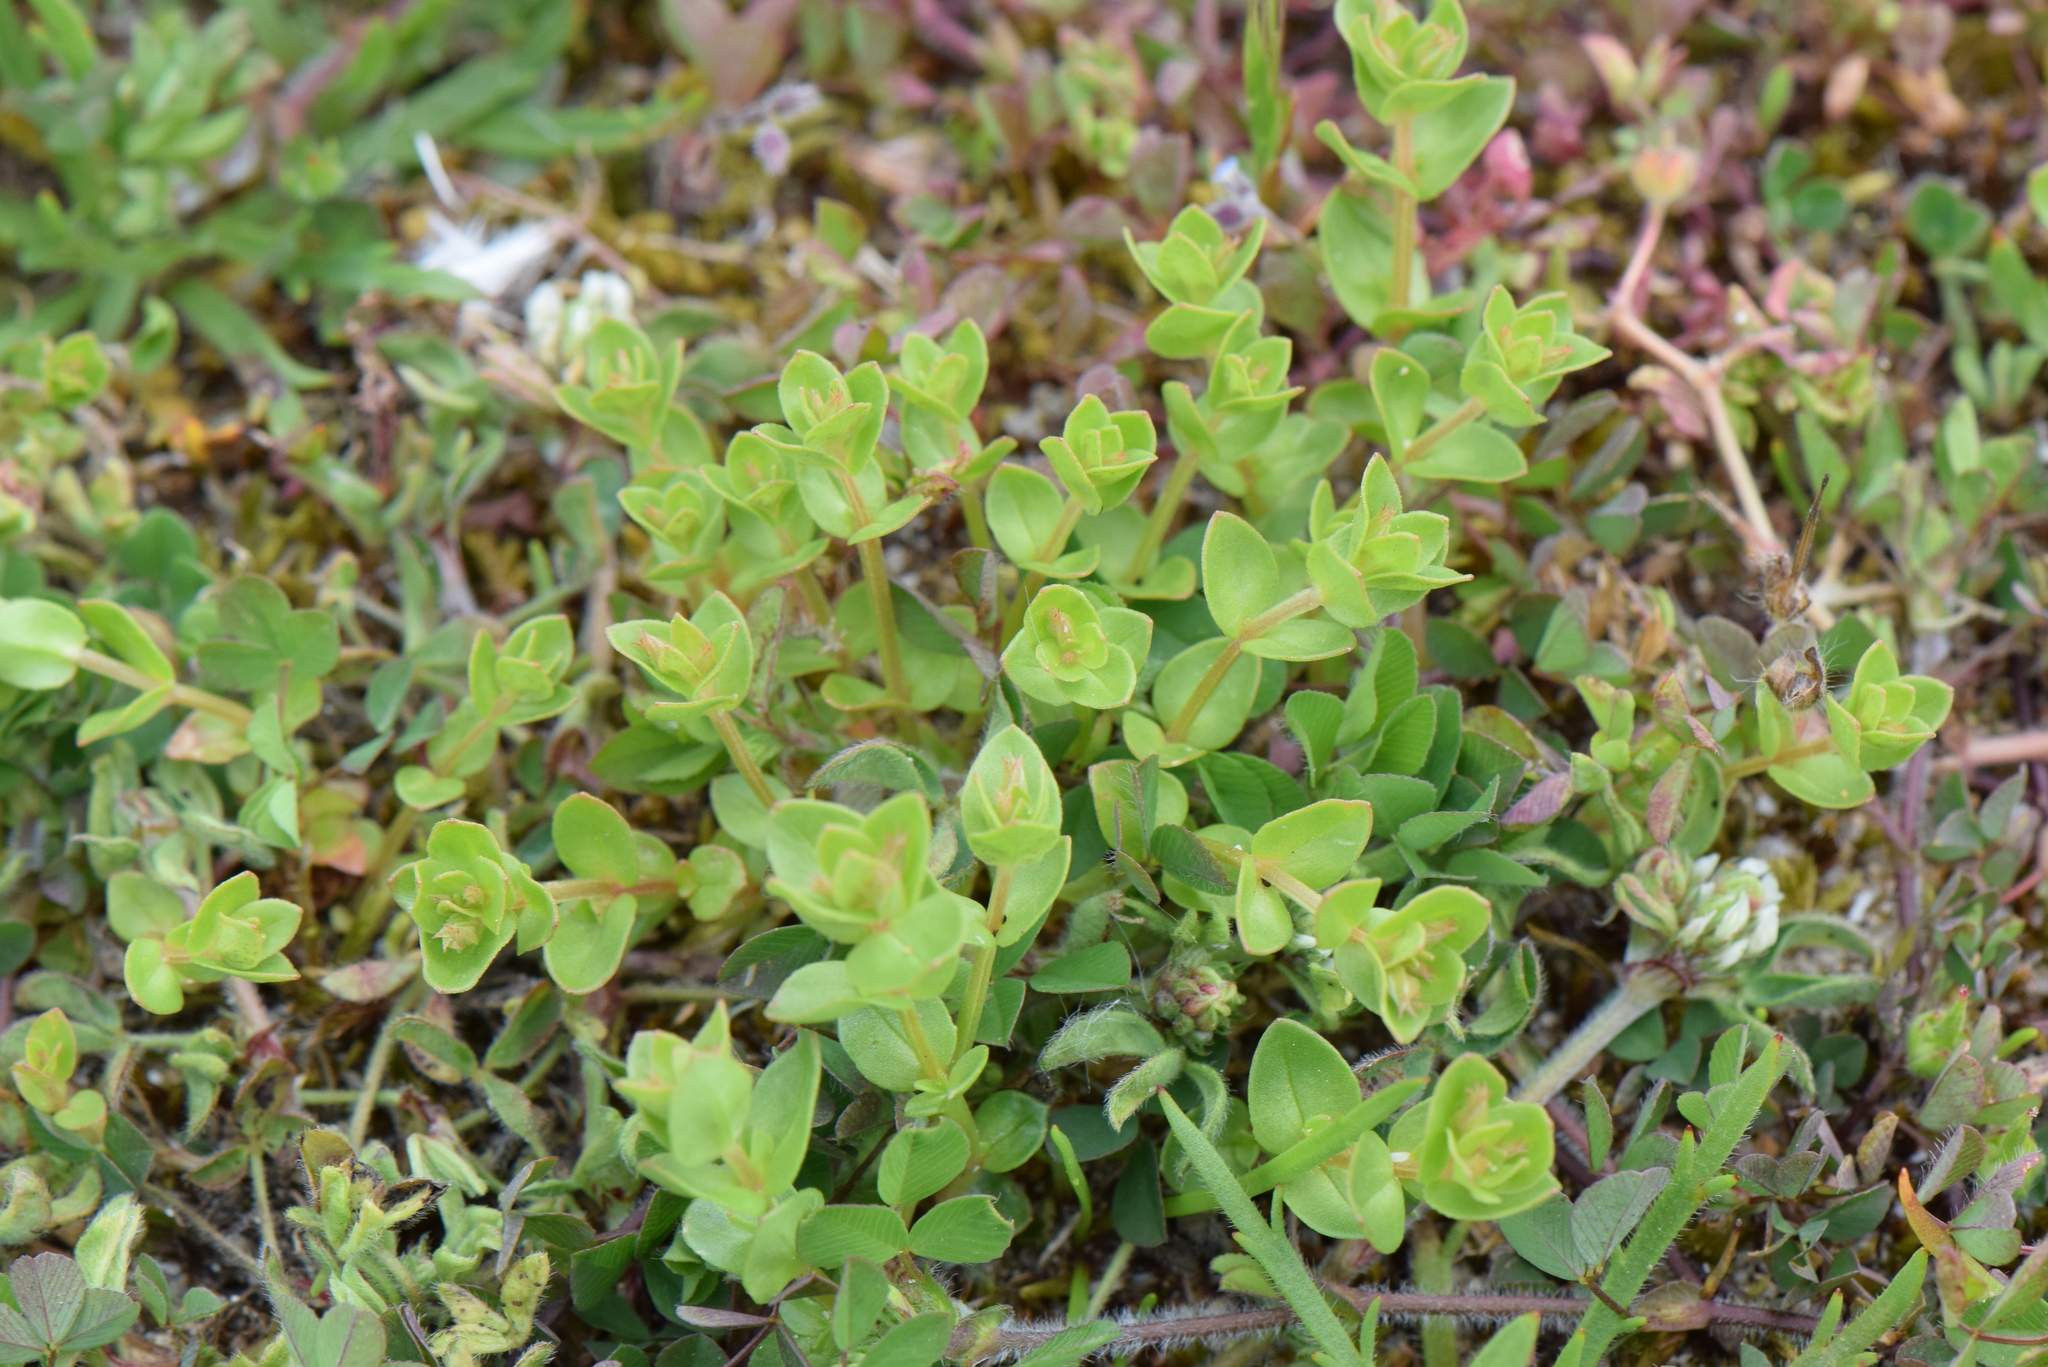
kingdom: Plantae
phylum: Tracheophyta
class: Magnoliopsida
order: Ericales
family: Primulaceae
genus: Lysimachia
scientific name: Lysimachia arvensis
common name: Scarlet pimpernel
